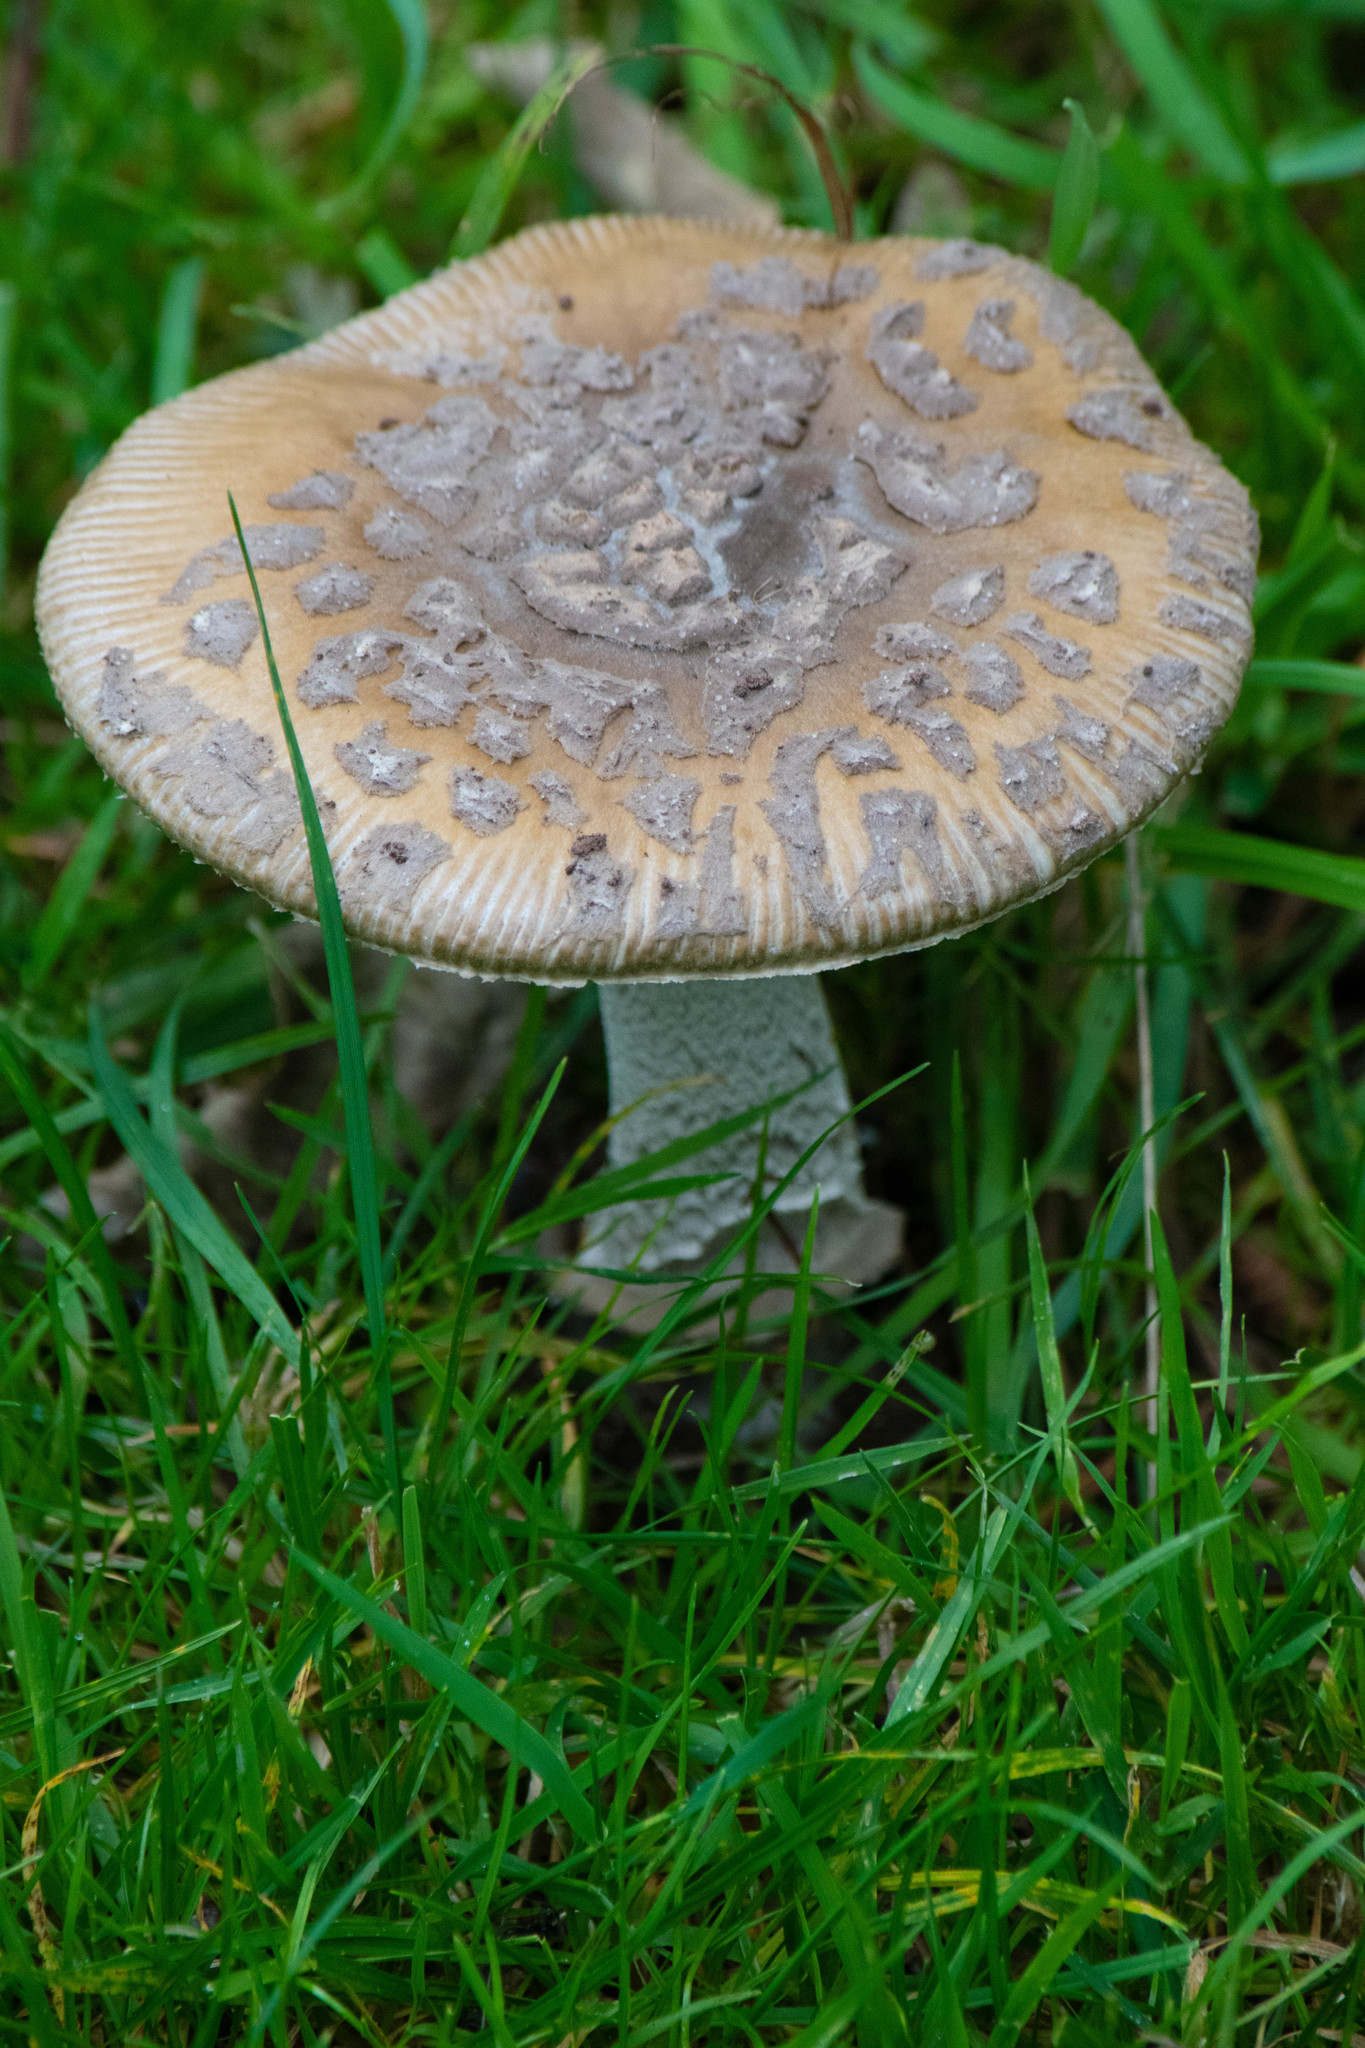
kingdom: Fungi
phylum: Basidiomycota
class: Agaricomycetes
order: Agaricales
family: Amanitaceae
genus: Amanita
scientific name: Amanita ceciliae
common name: Snakeskin grisette
